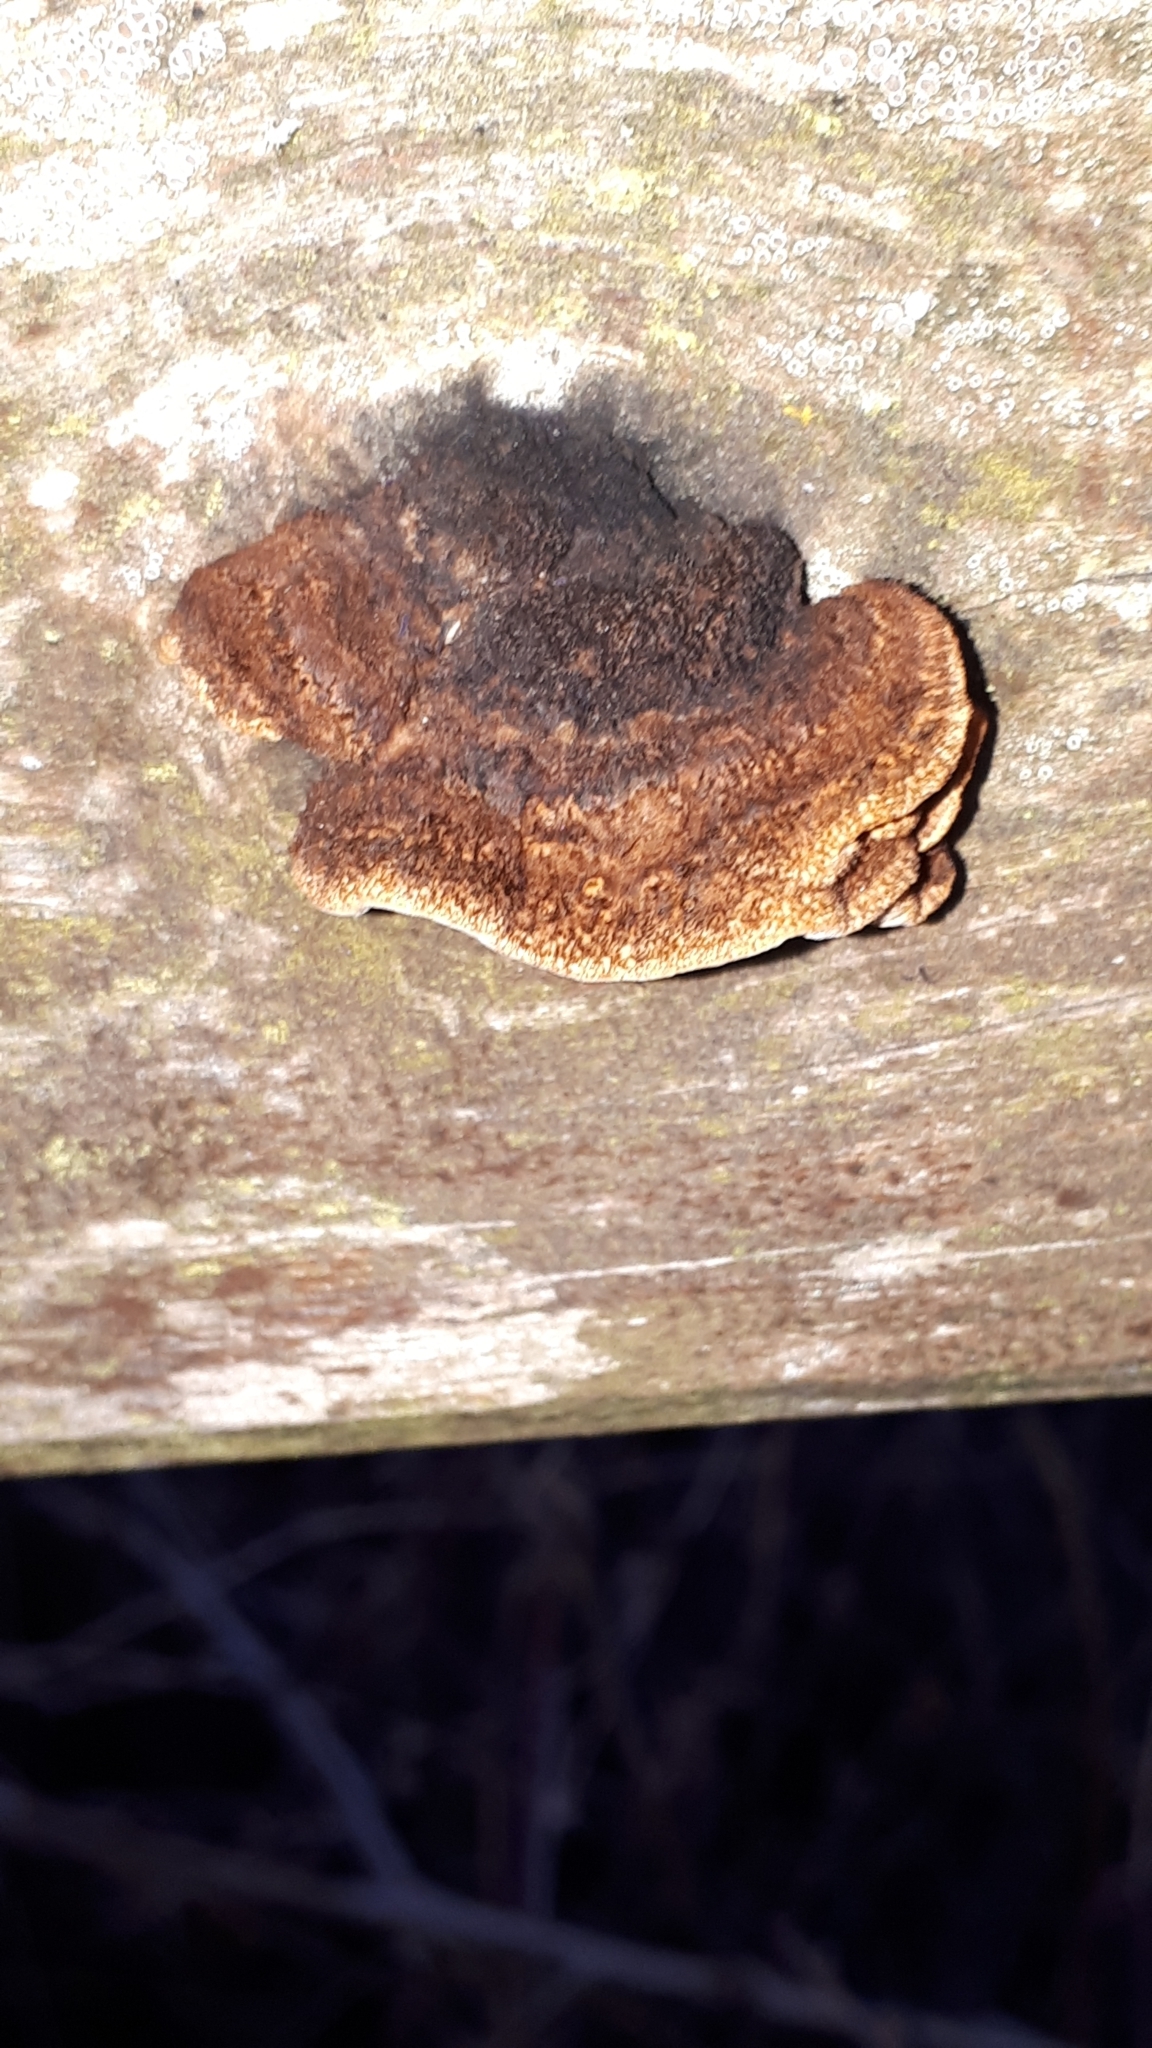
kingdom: Fungi
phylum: Basidiomycota
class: Agaricomycetes
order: Gloeophyllales
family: Gloeophyllaceae
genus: Gloeophyllum
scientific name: Gloeophyllum sepiarium
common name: Conifer mazegill
